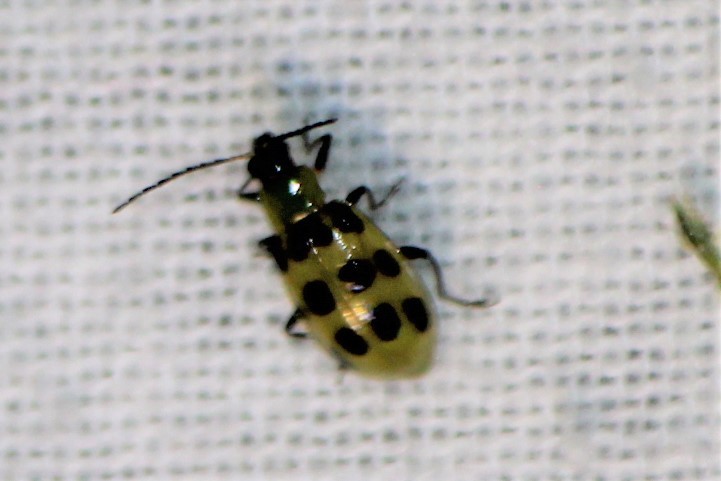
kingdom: Animalia
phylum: Arthropoda
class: Insecta
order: Coleoptera
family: Chrysomelidae
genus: Diabrotica
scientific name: Diabrotica undecimpunctata
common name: Spotted cucumber beetle
